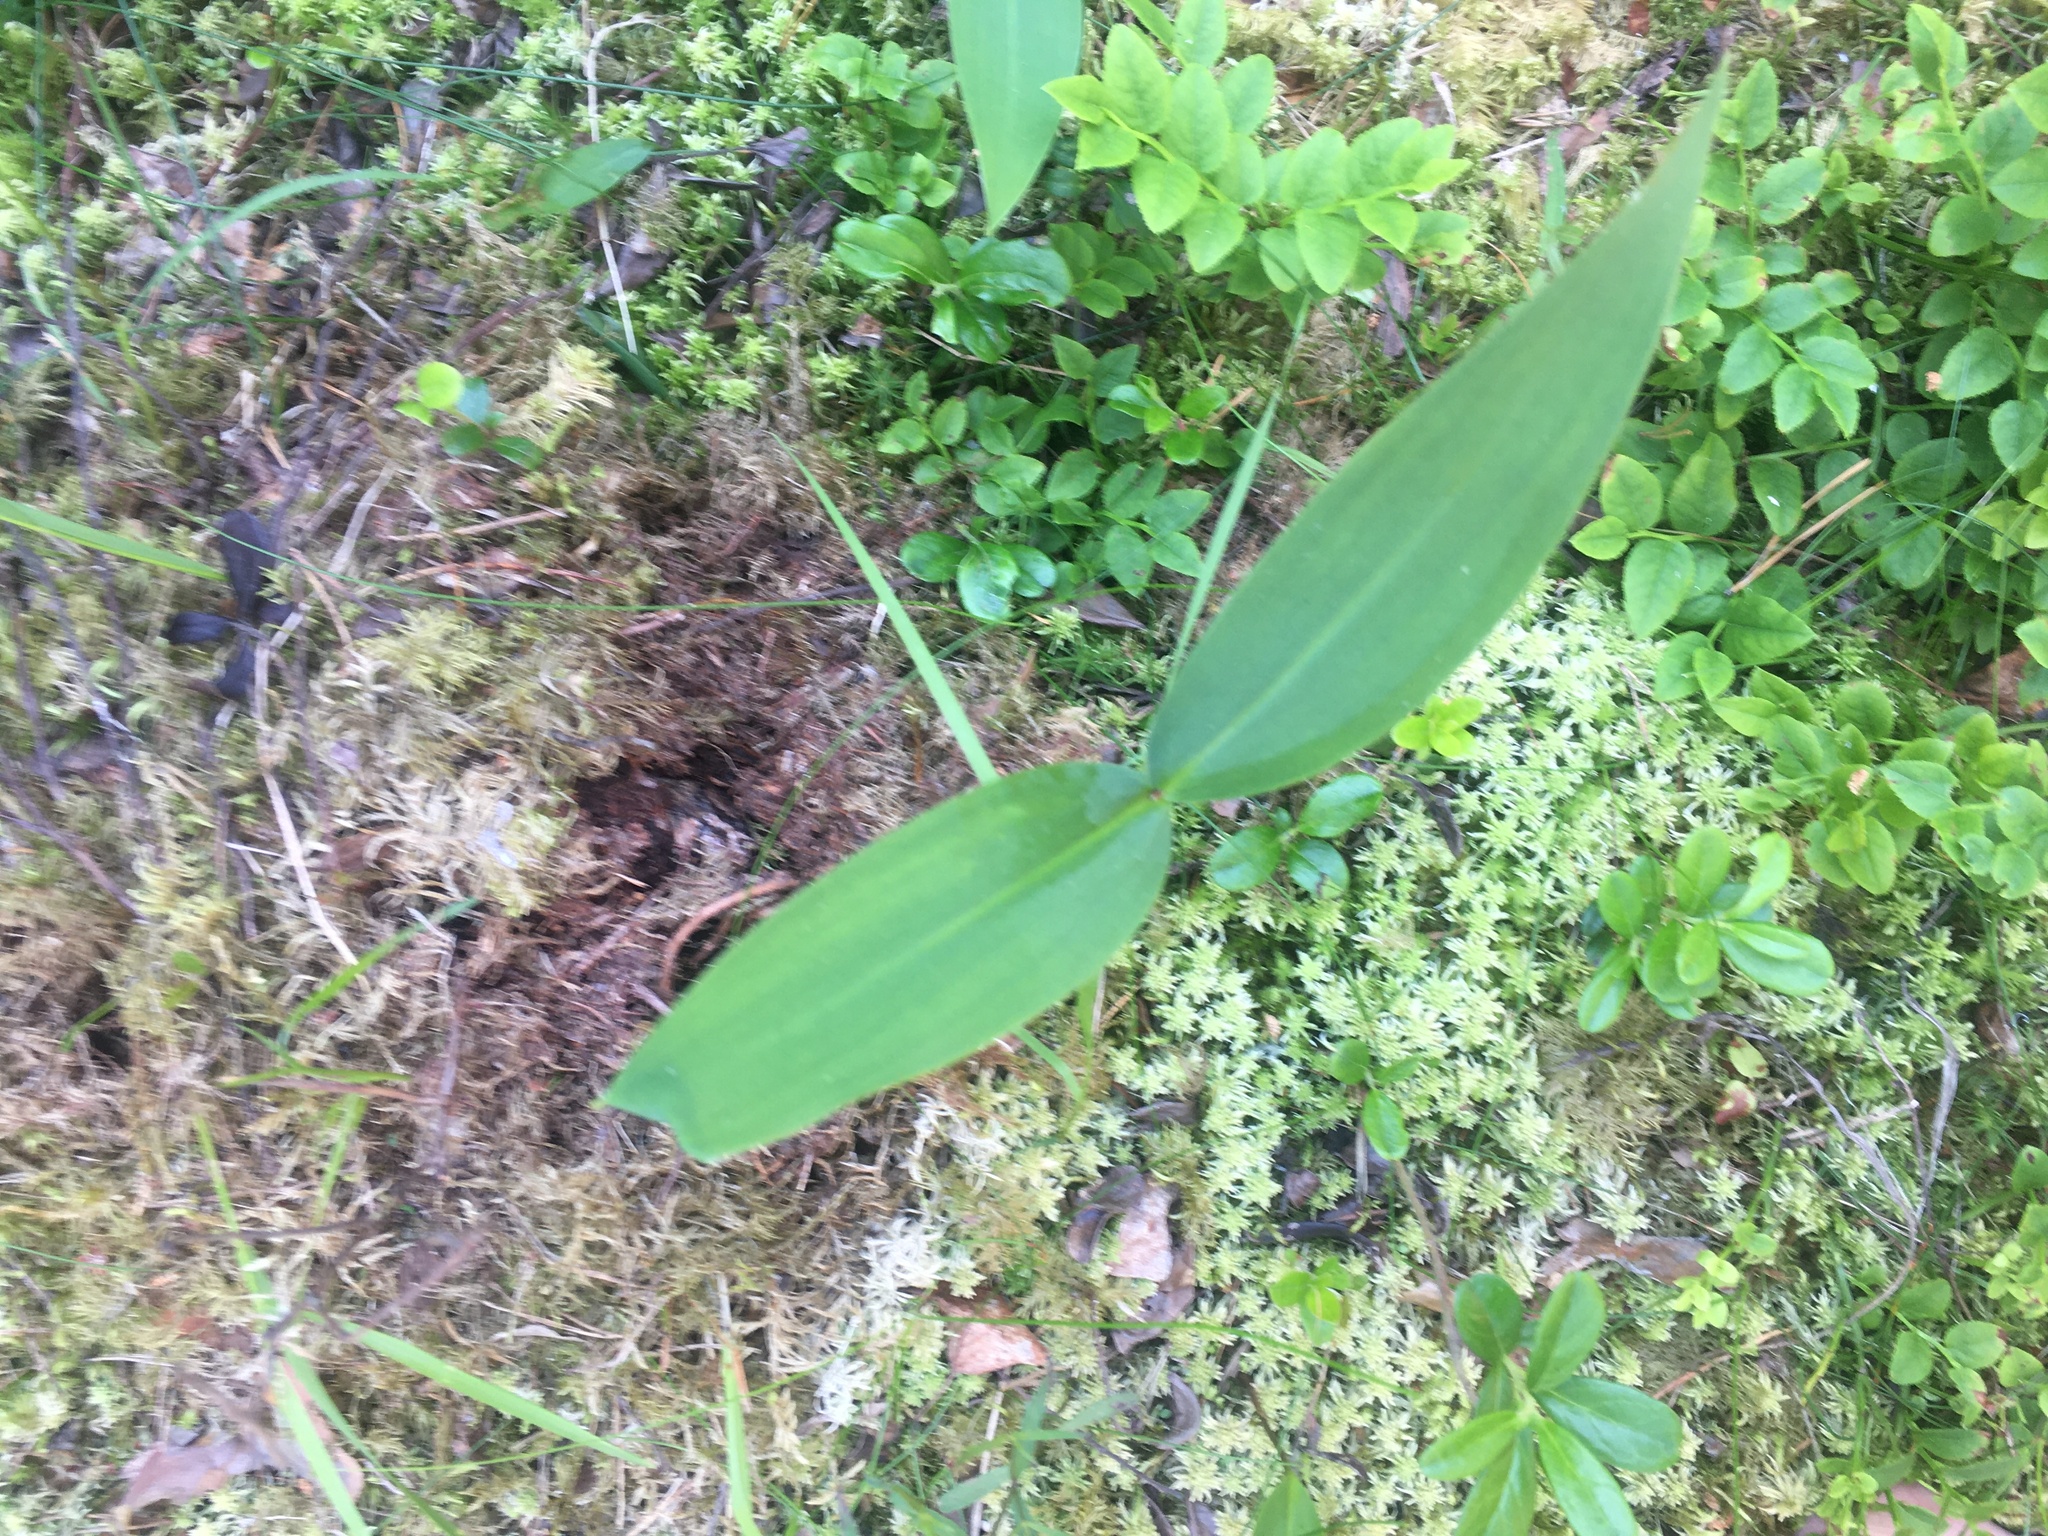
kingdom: Plantae
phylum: Tracheophyta
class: Liliopsida
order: Asparagales
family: Asparagaceae
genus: Convallaria
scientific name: Convallaria majalis
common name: Lily-of-the-valley
